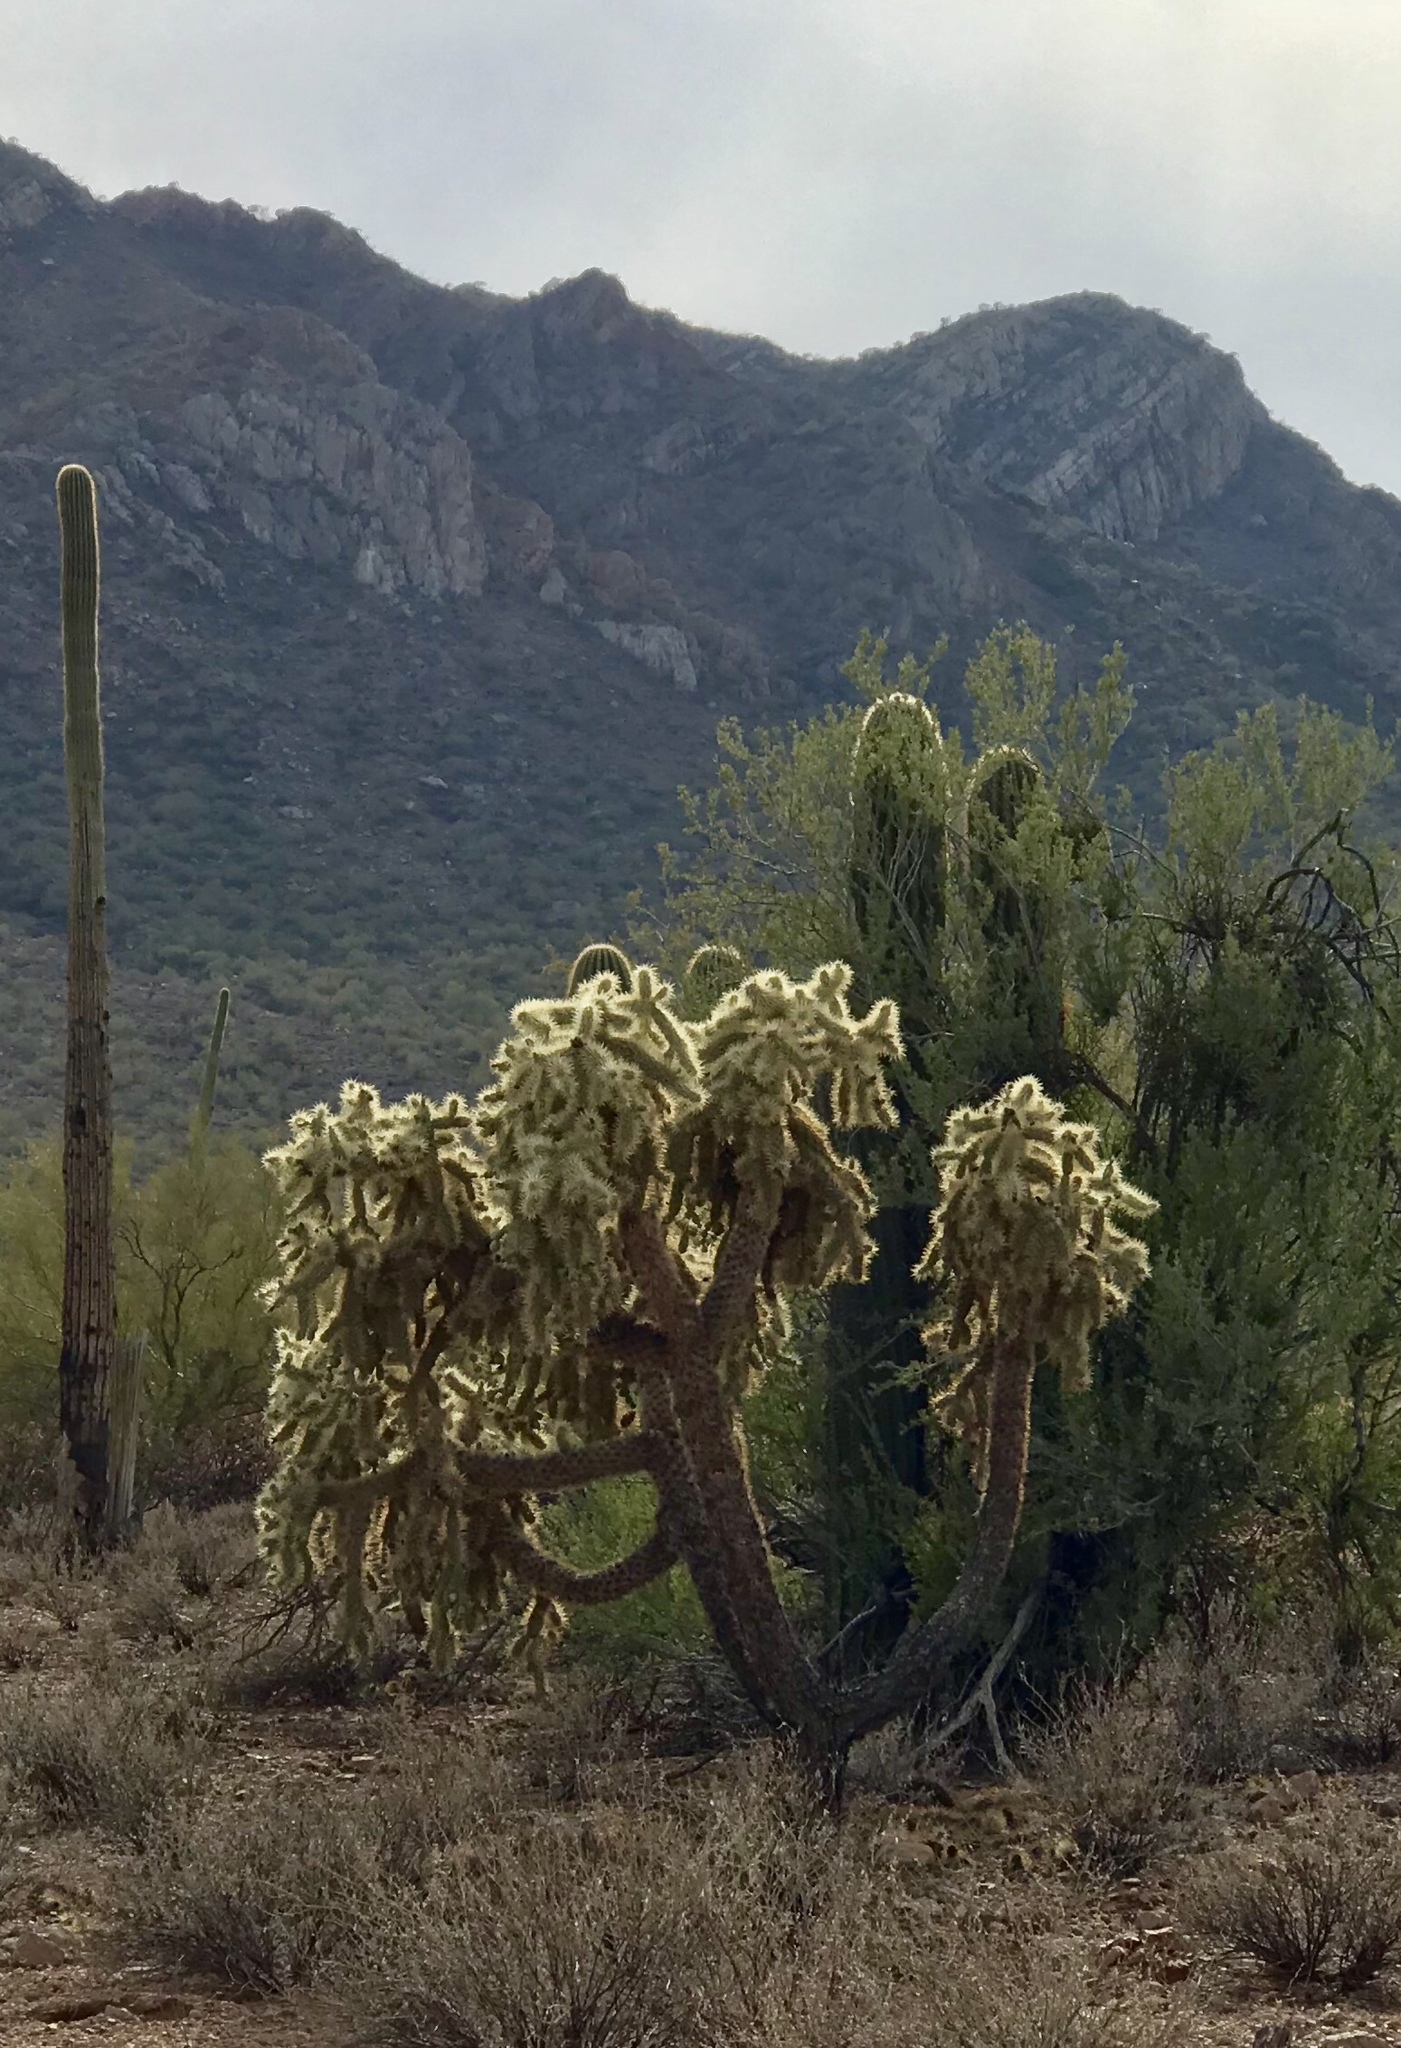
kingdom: Plantae
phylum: Tracheophyta
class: Magnoliopsida
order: Caryophyllales
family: Cactaceae
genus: Cylindropuntia
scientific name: Cylindropuntia fulgida
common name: Jumping cholla
